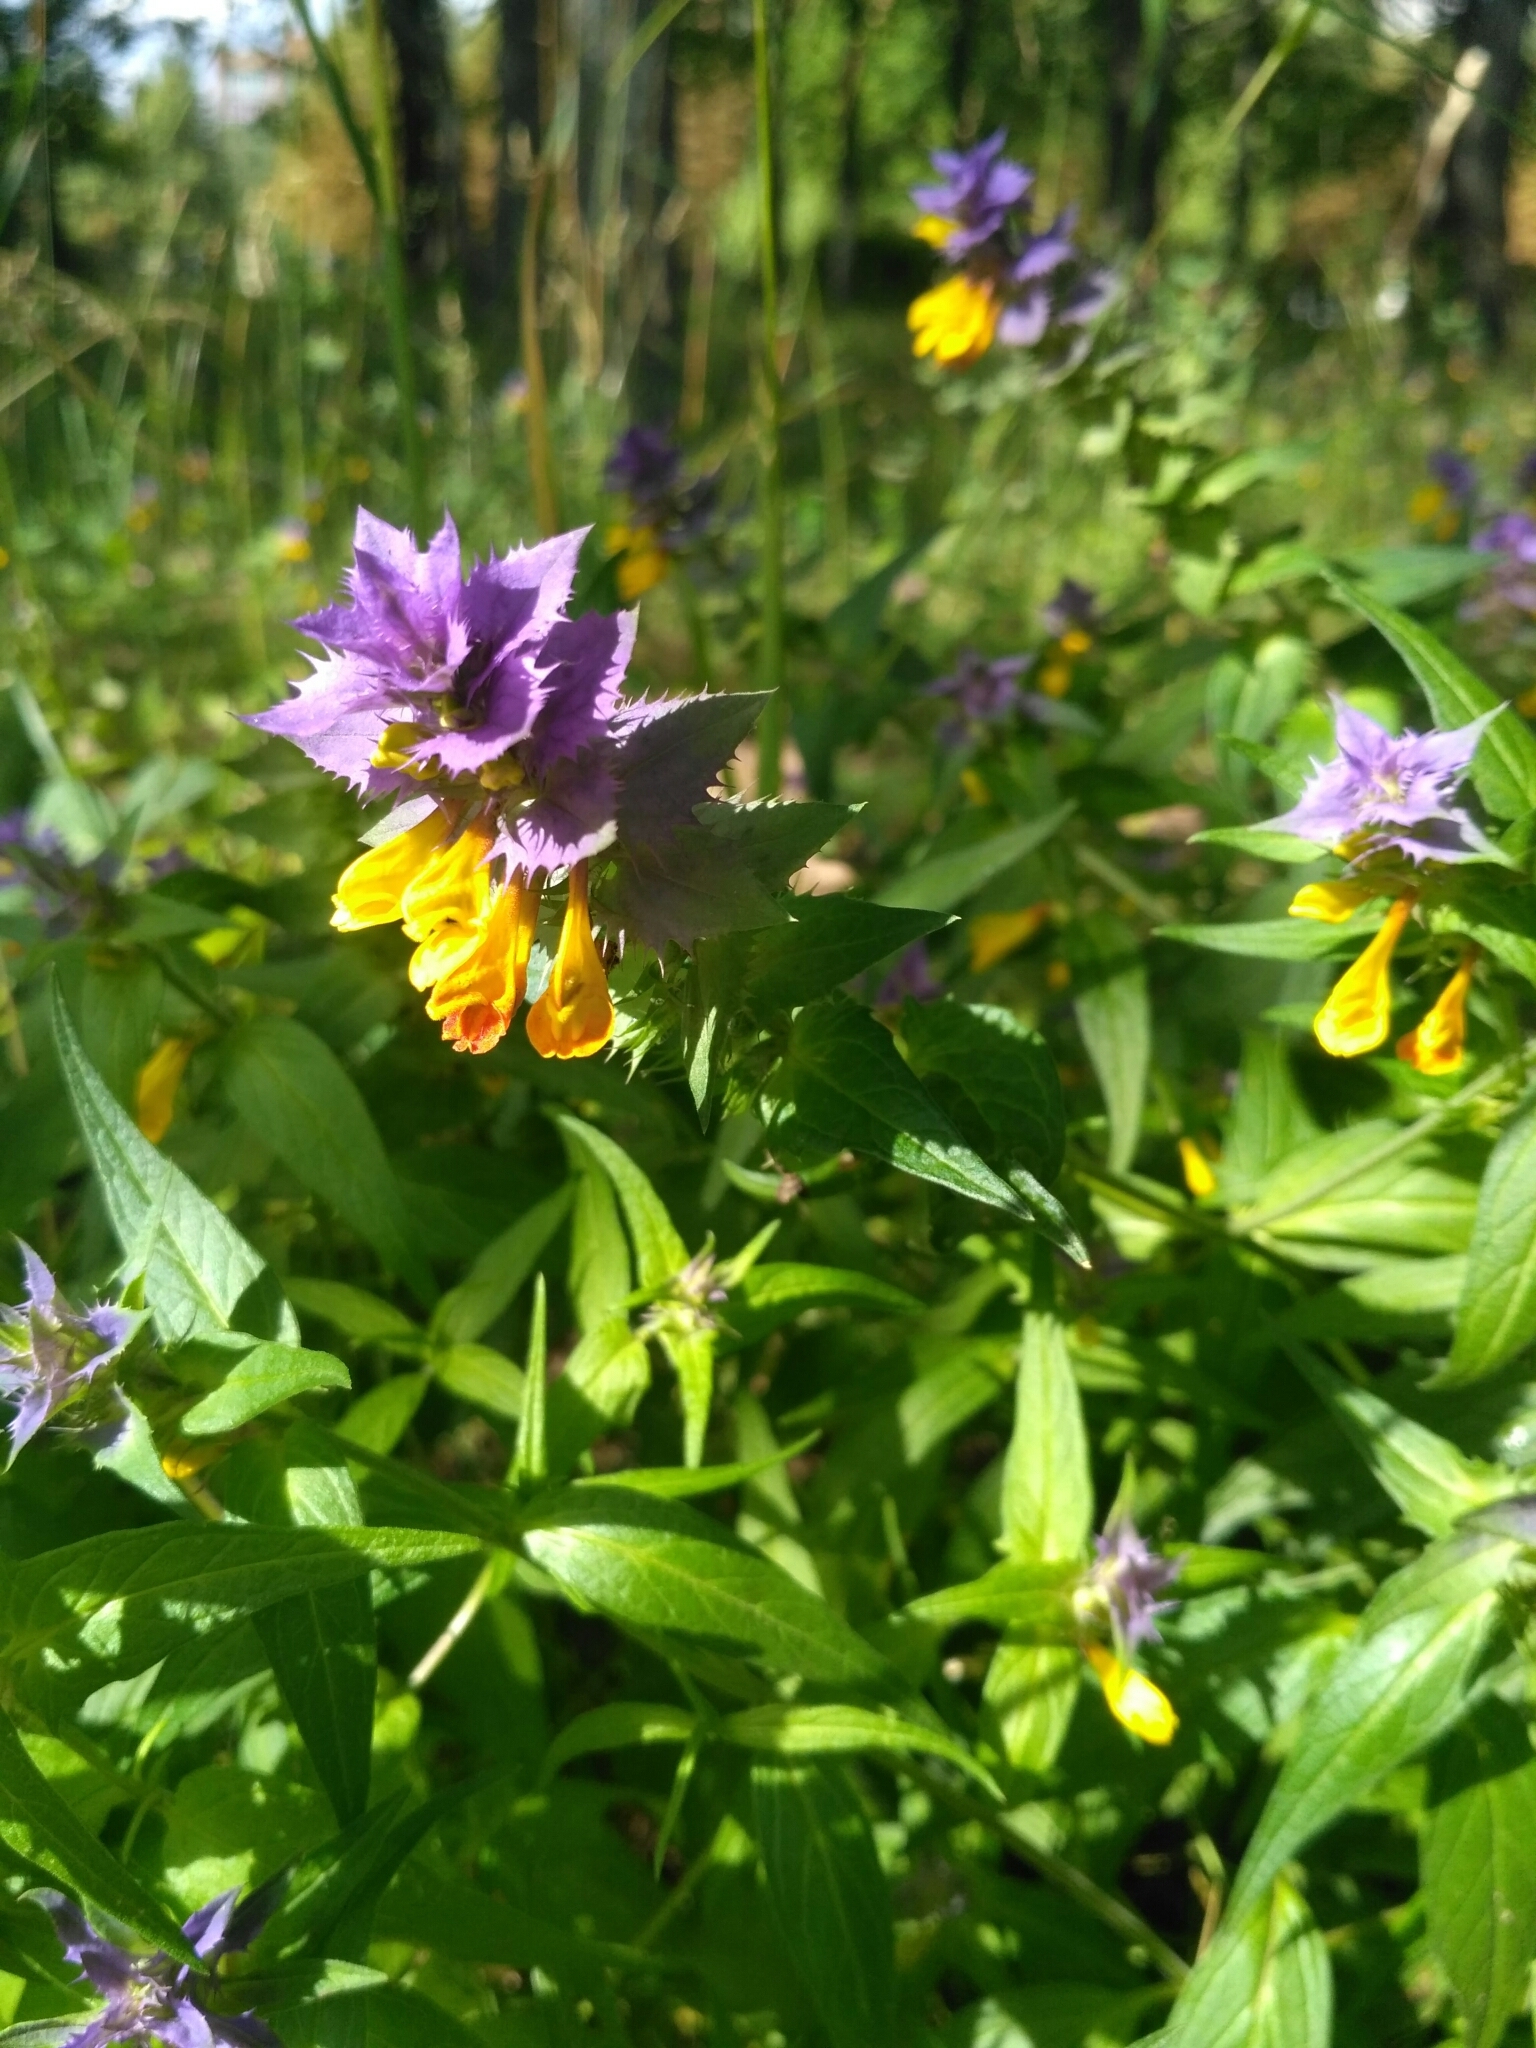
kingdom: Plantae
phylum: Tracheophyta
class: Magnoliopsida
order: Lamiales
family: Orobanchaceae
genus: Melampyrum
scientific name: Melampyrum nemorosum
